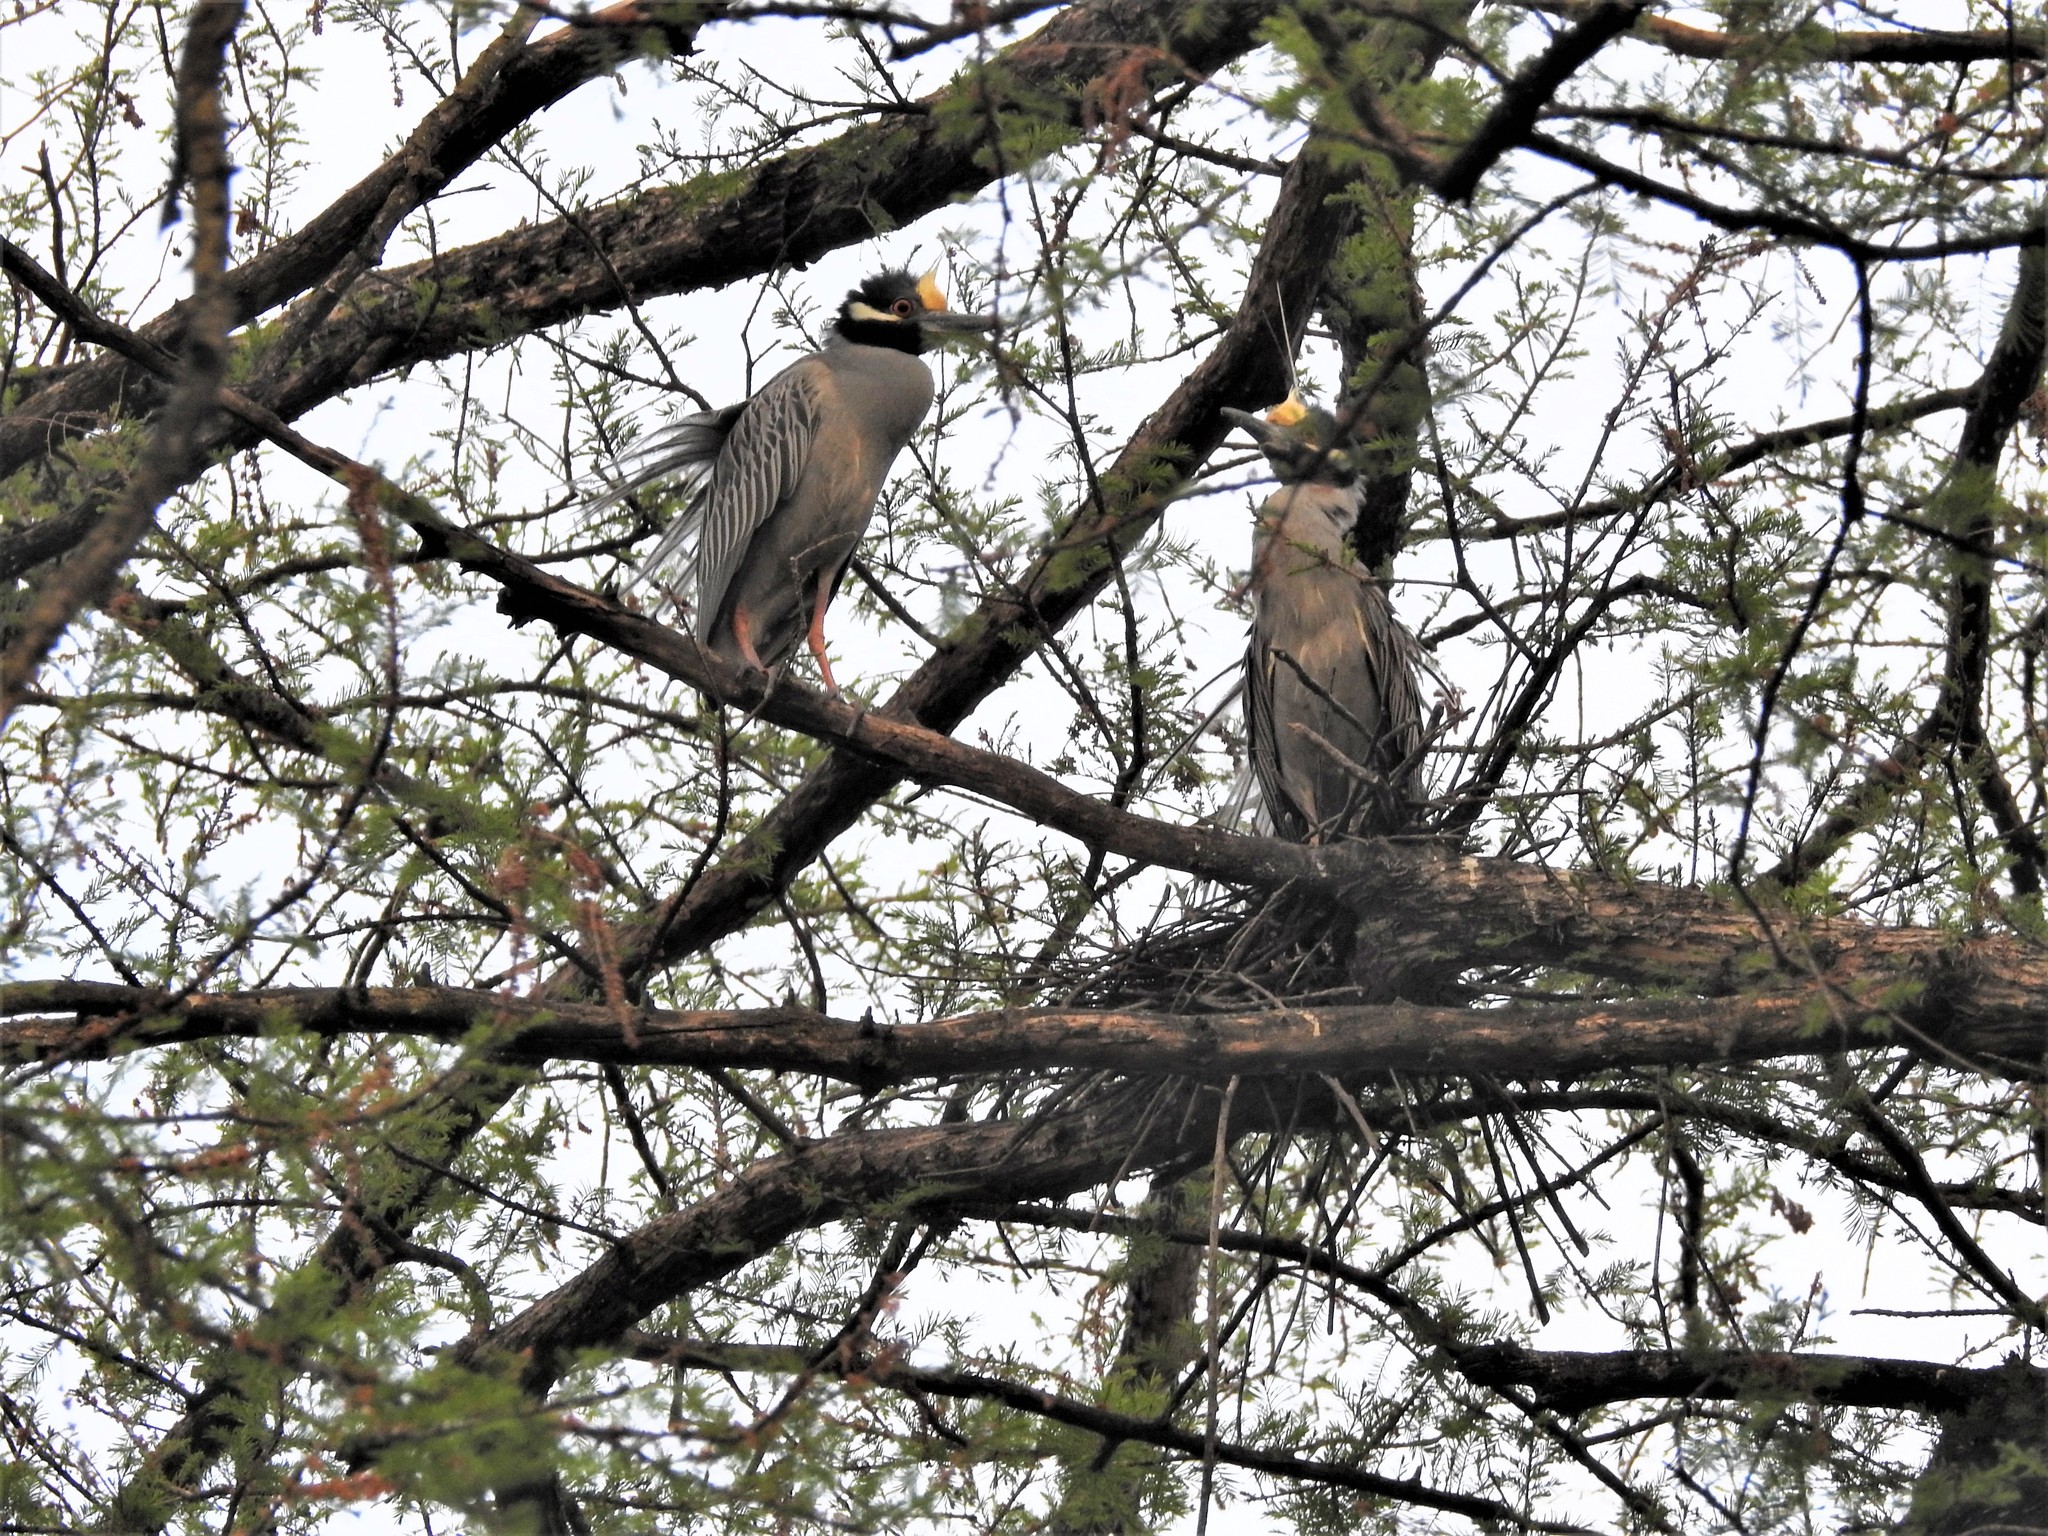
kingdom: Animalia
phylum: Chordata
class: Aves
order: Pelecaniformes
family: Ardeidae
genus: Nyctanassa
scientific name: Nyctanassa violacea
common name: Yellow-crowned night heron
